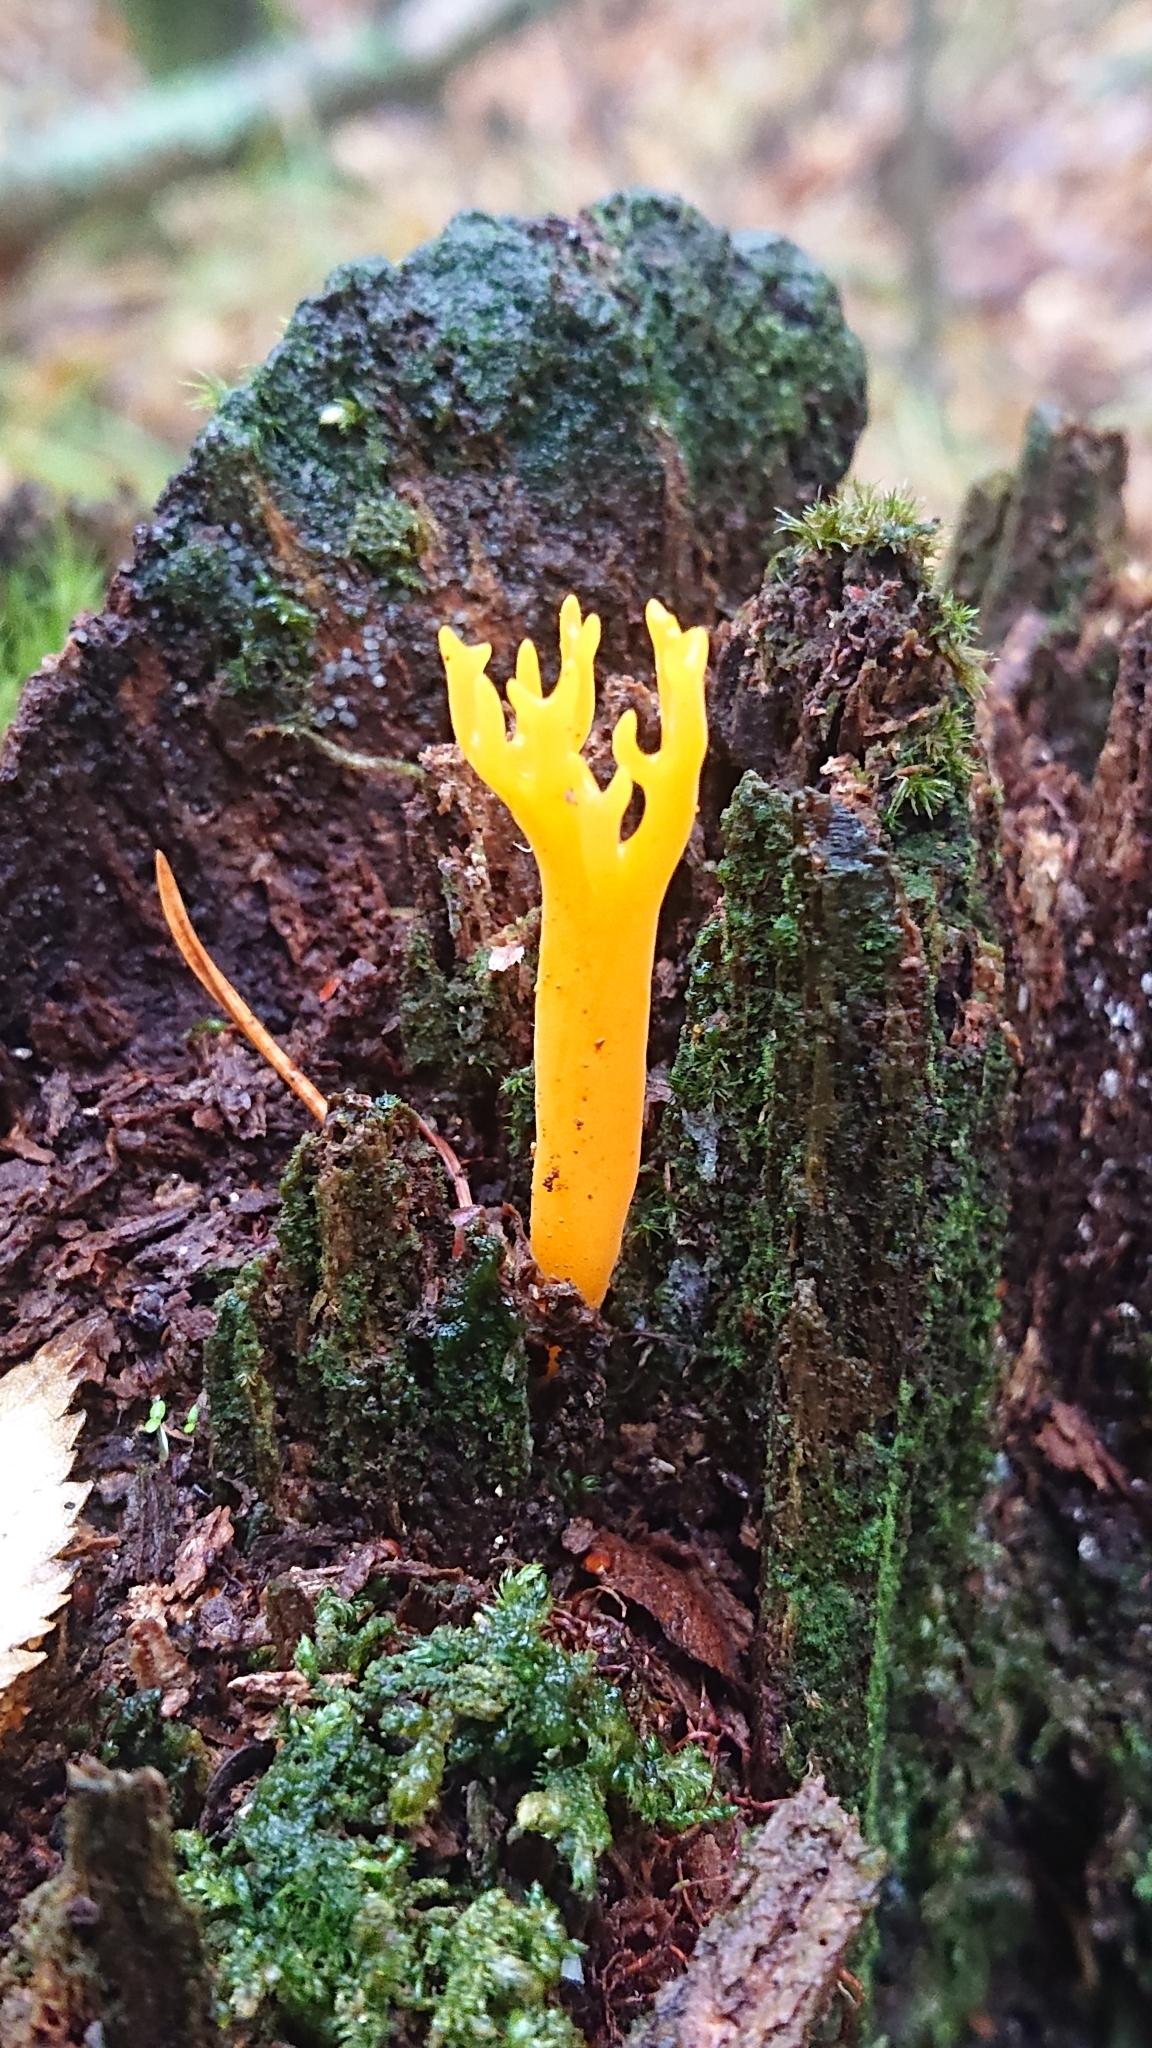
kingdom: Fungi
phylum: Basidiomycota
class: Dacrymycetes
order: Dacrymycetales
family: Dacrymycetaceae
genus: Calocera
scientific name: Calocera viscosa
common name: Yellow stagshorn
